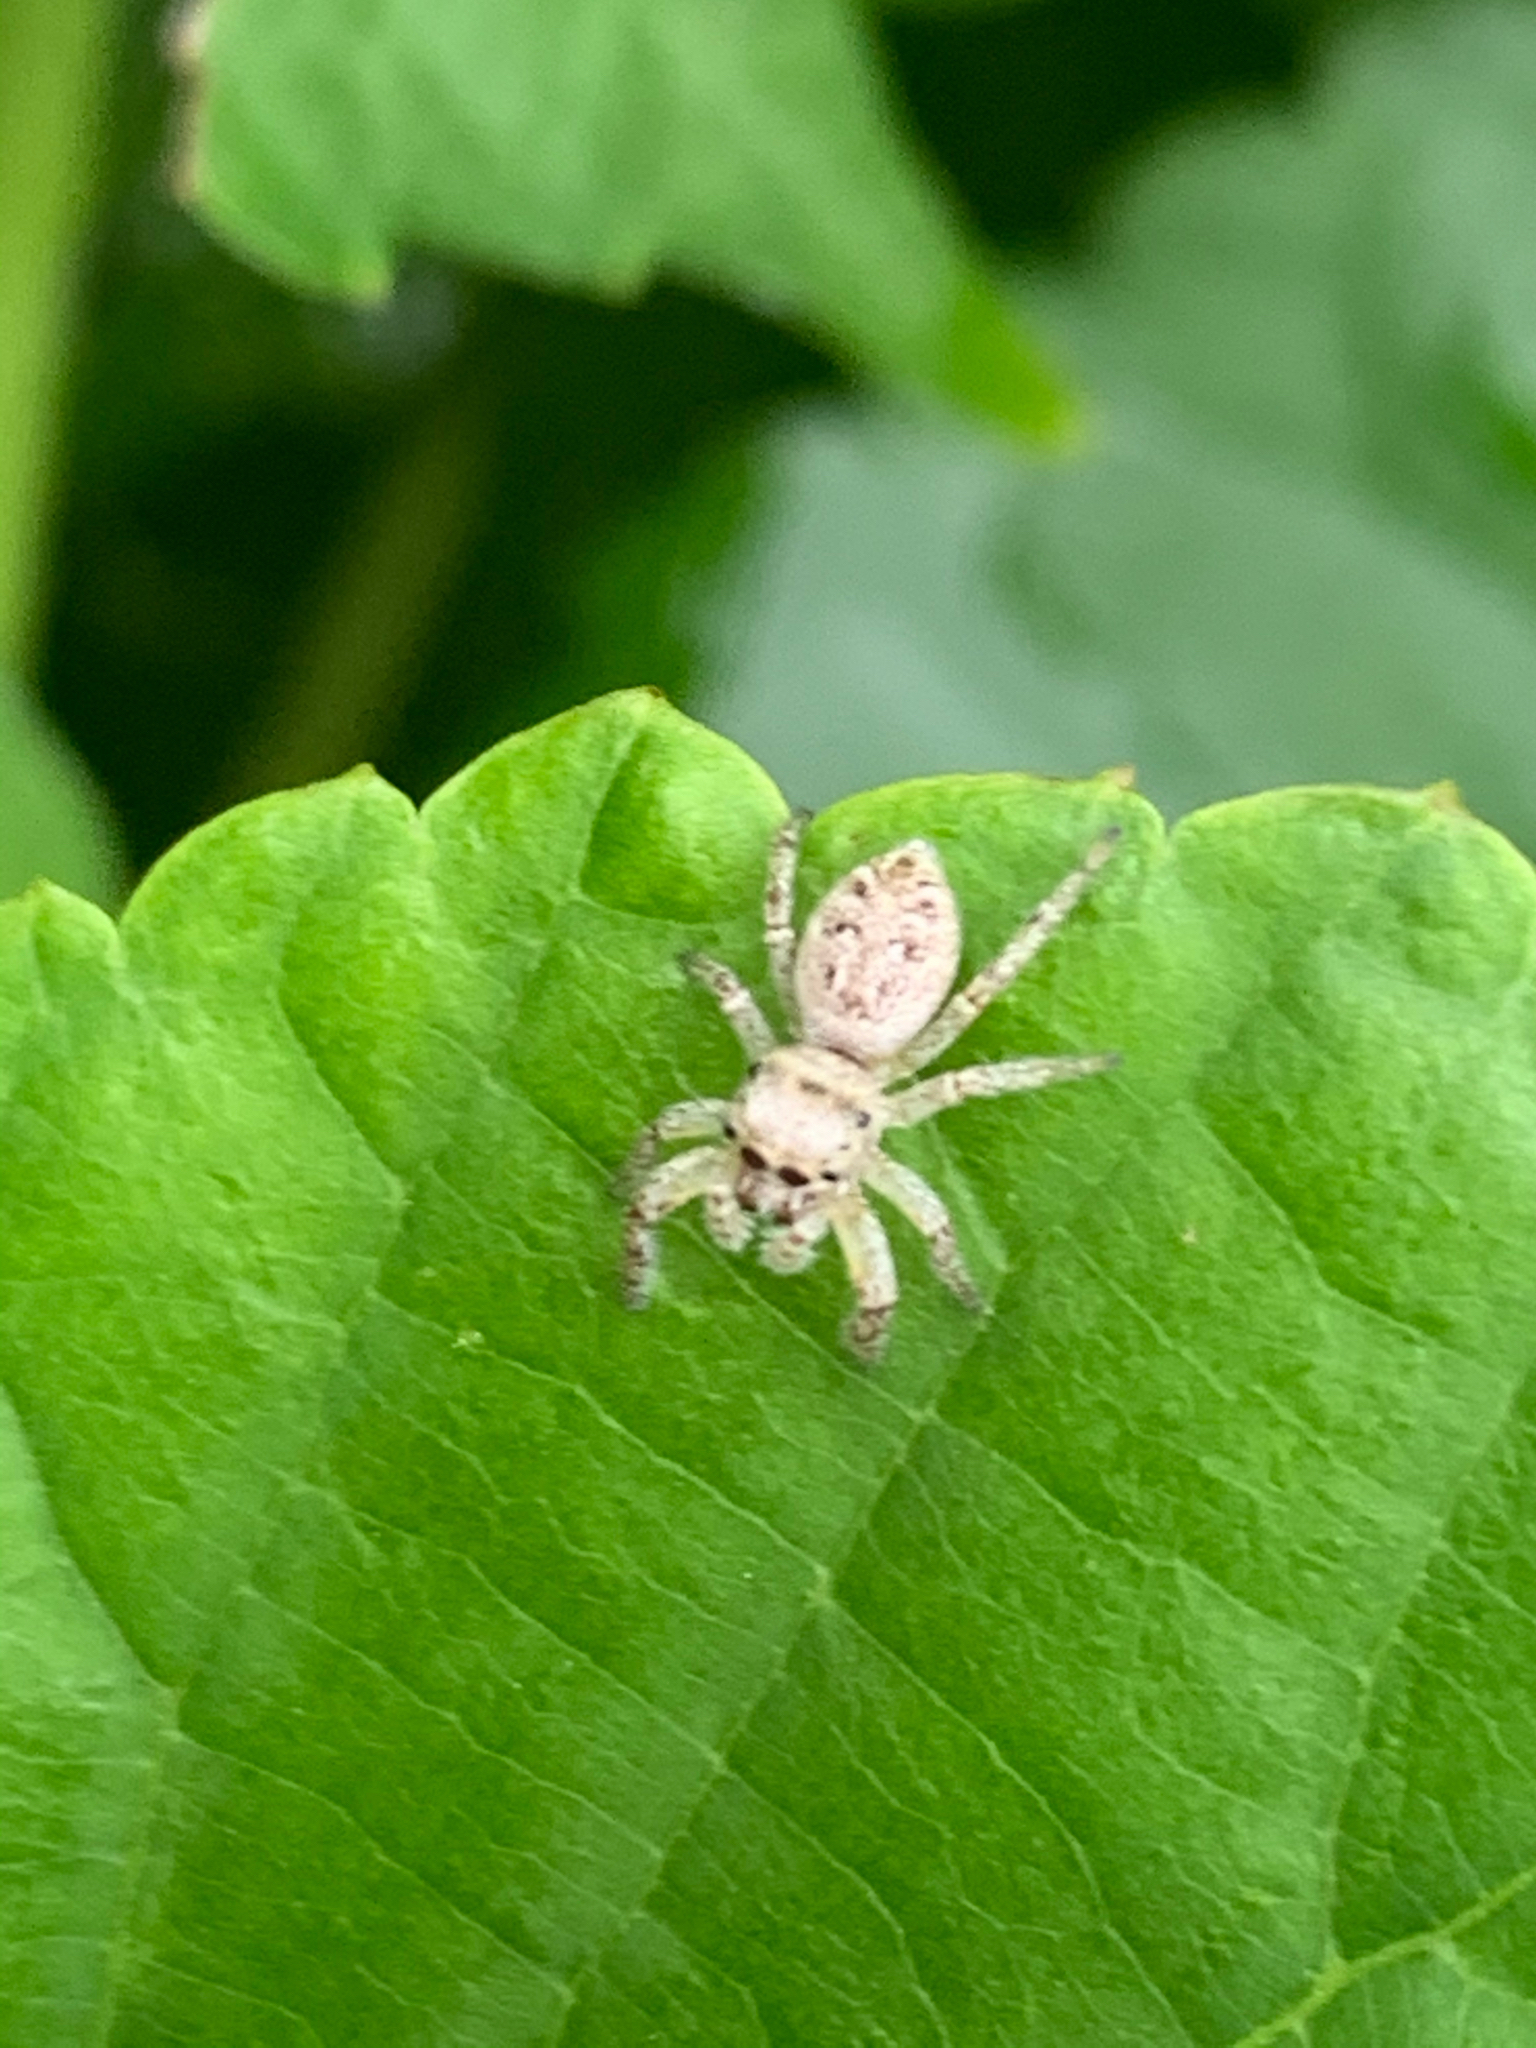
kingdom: Animalia
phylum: Arthropoda
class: Arachnida
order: Araneae
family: Salticidae
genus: Eris
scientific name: Eris
